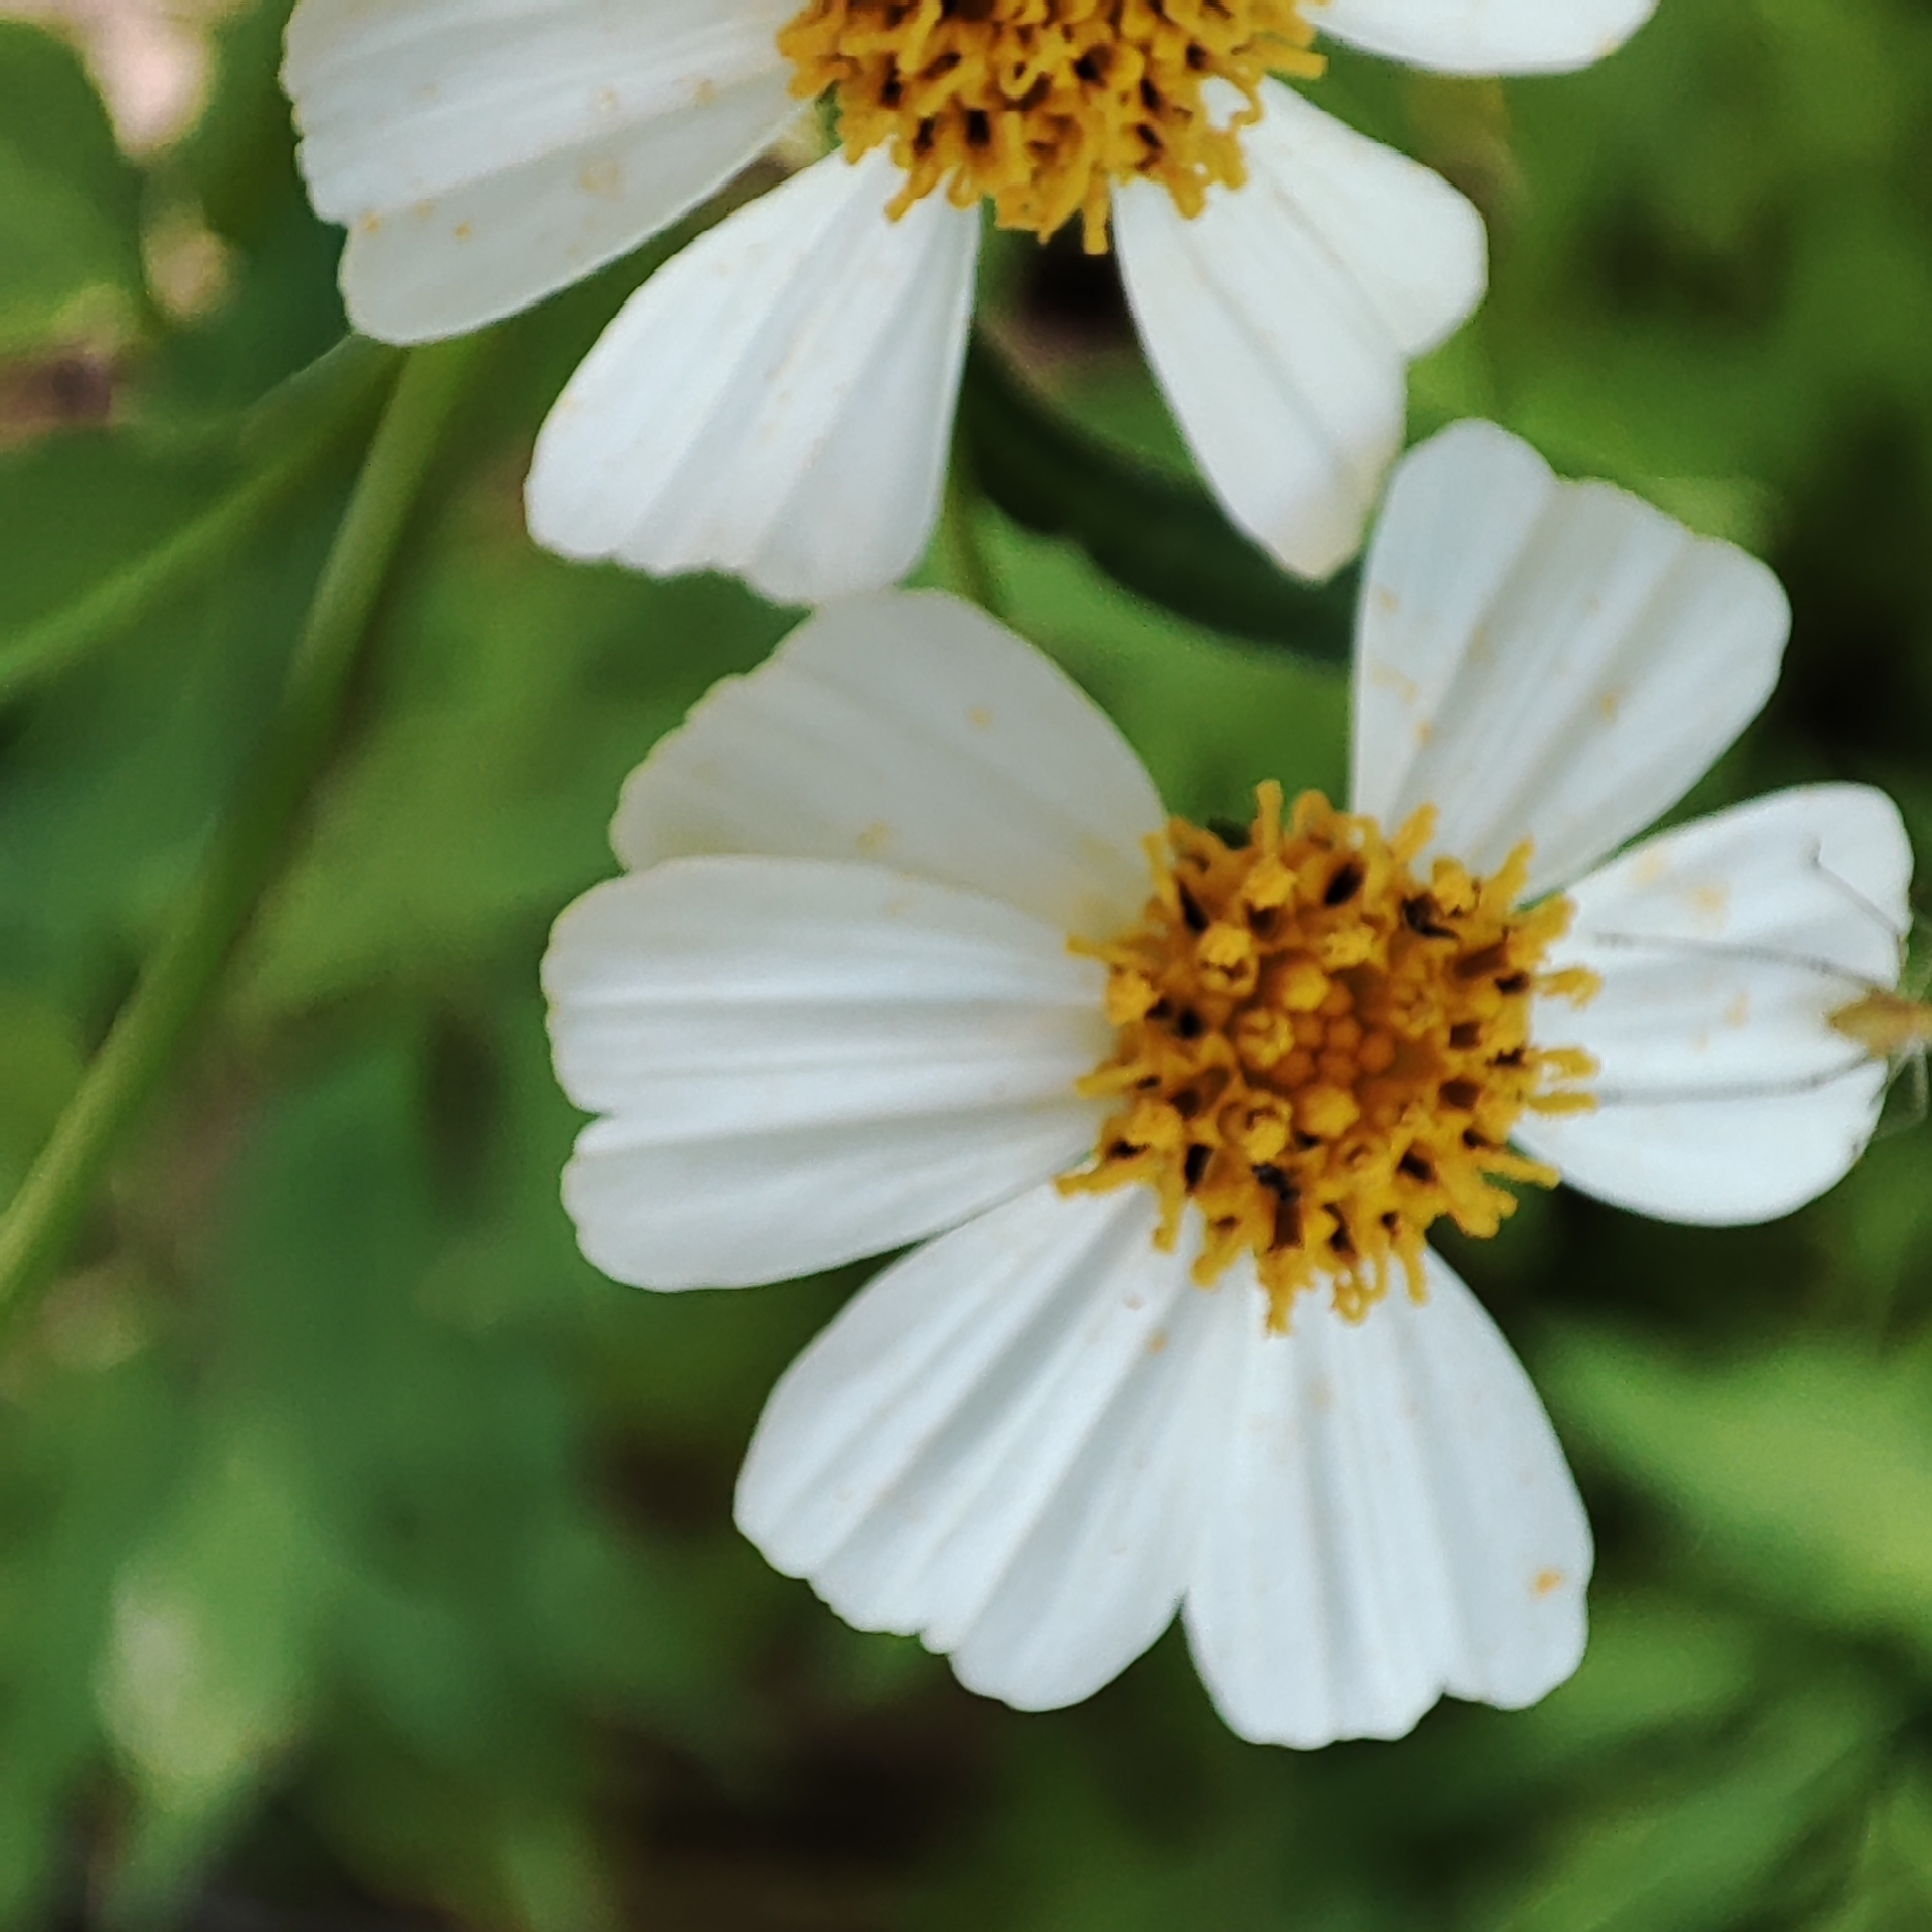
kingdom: Plantae
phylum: Tracheophyta
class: Magnoliopsida
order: Asterales
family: Asteraceae
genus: Bidens
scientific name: Bidens alba
